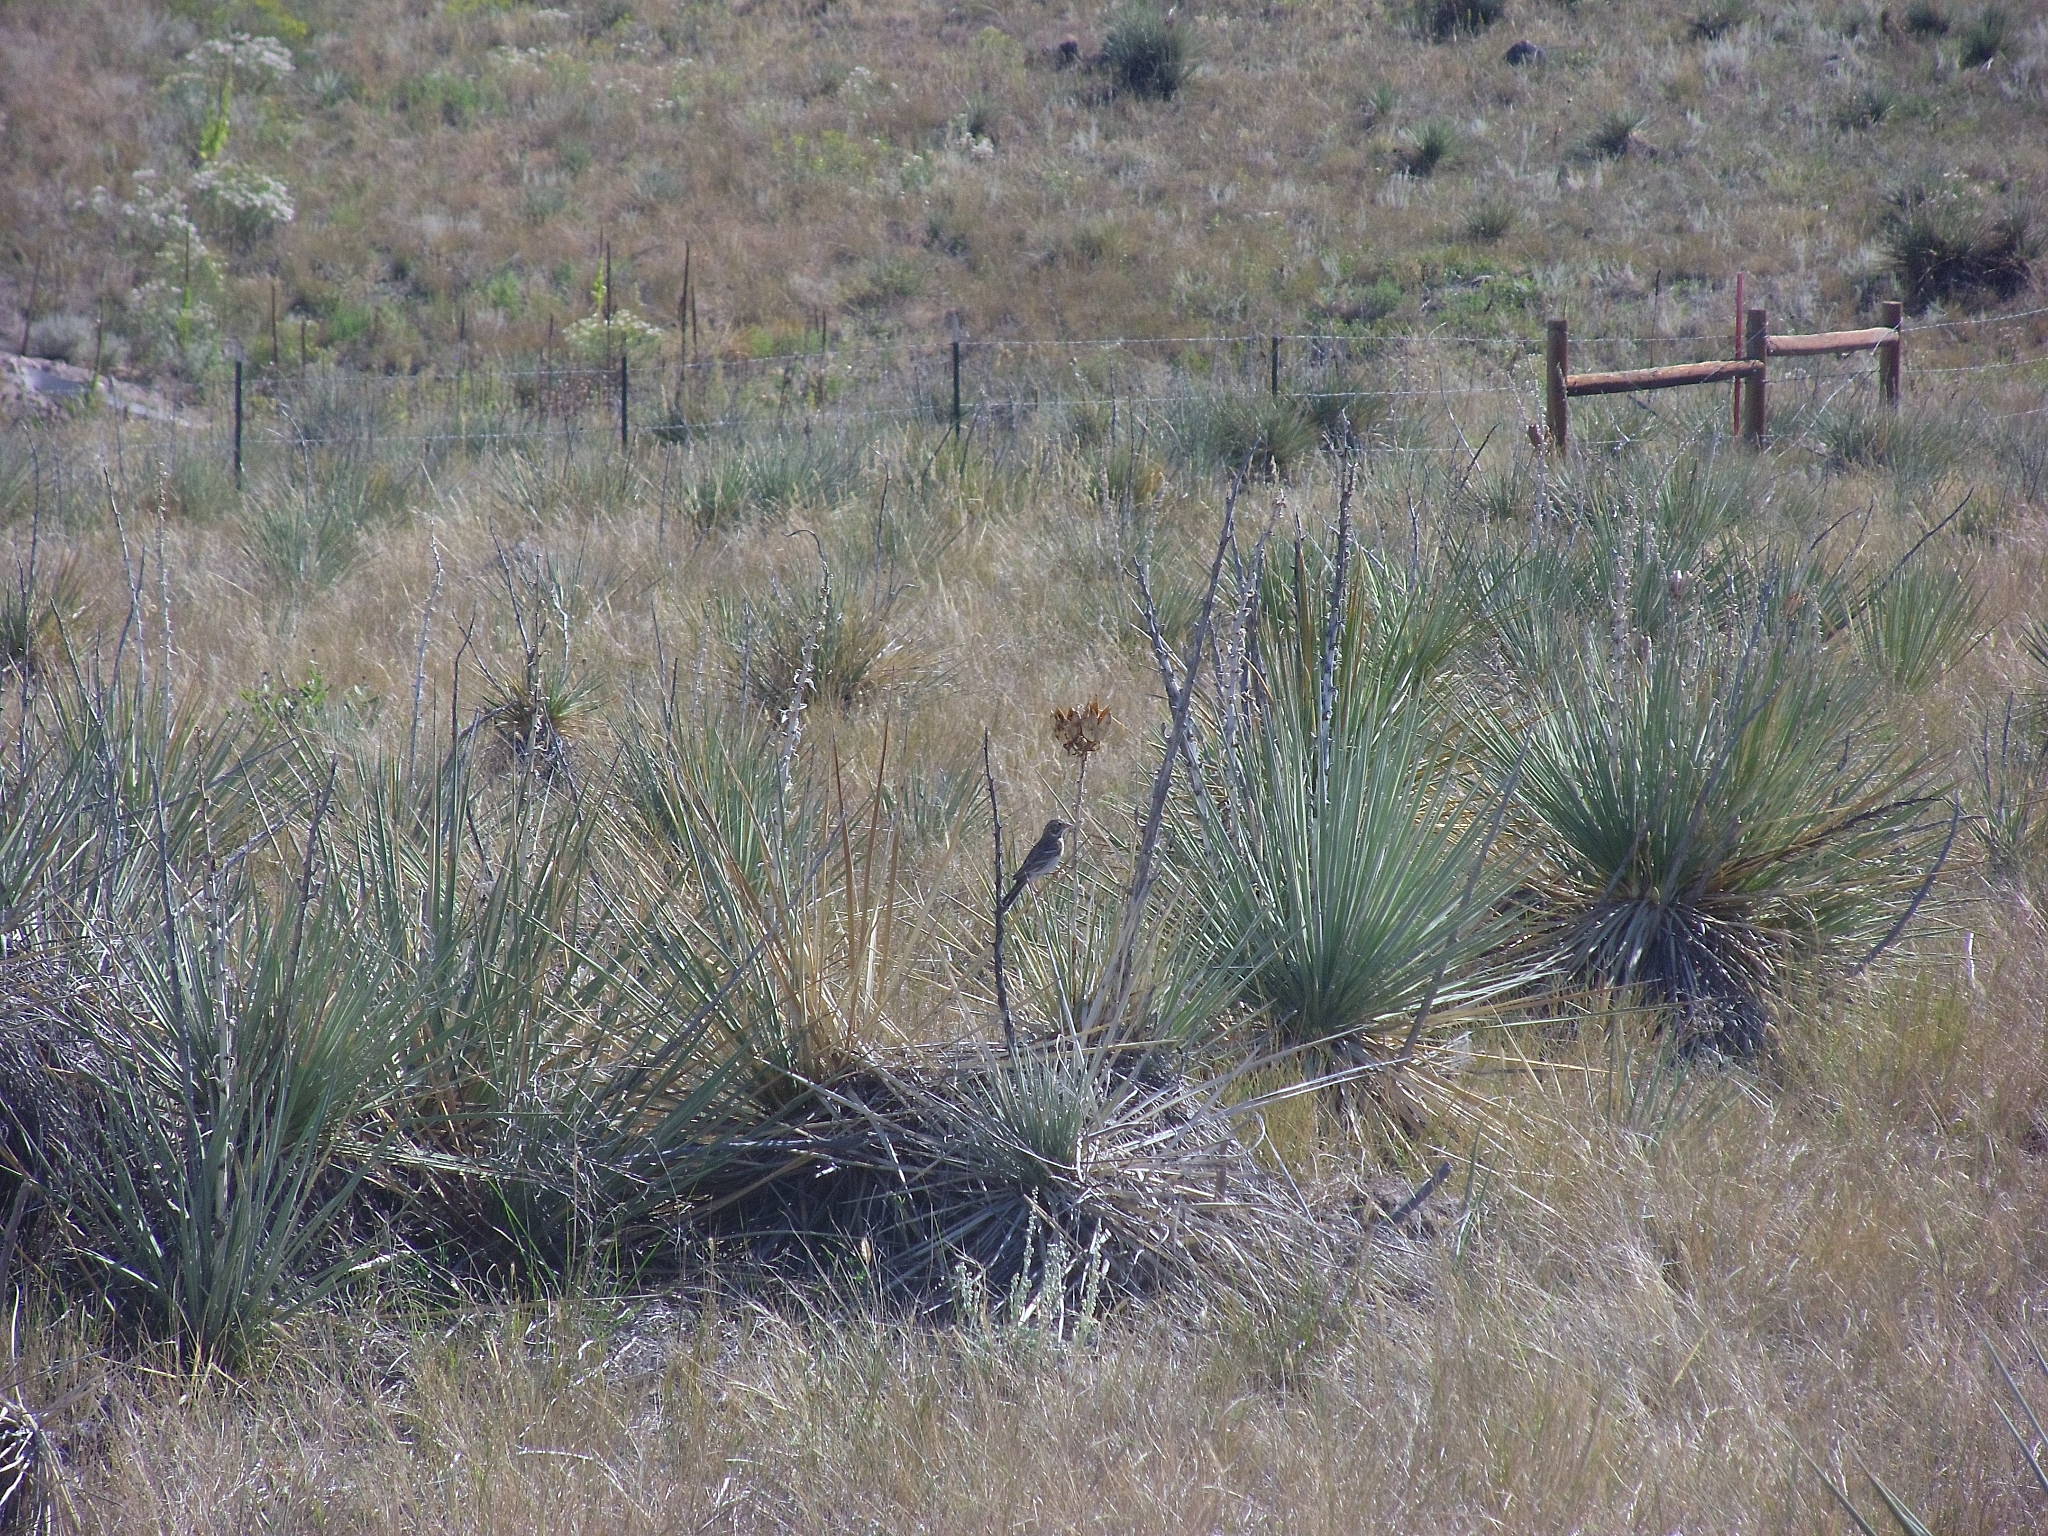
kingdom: Animalia
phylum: Chordata
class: Aves
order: Passeriformes
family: Passerellidae
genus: Chondestes
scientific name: Chondestes grammacus
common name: Lark sparrow
